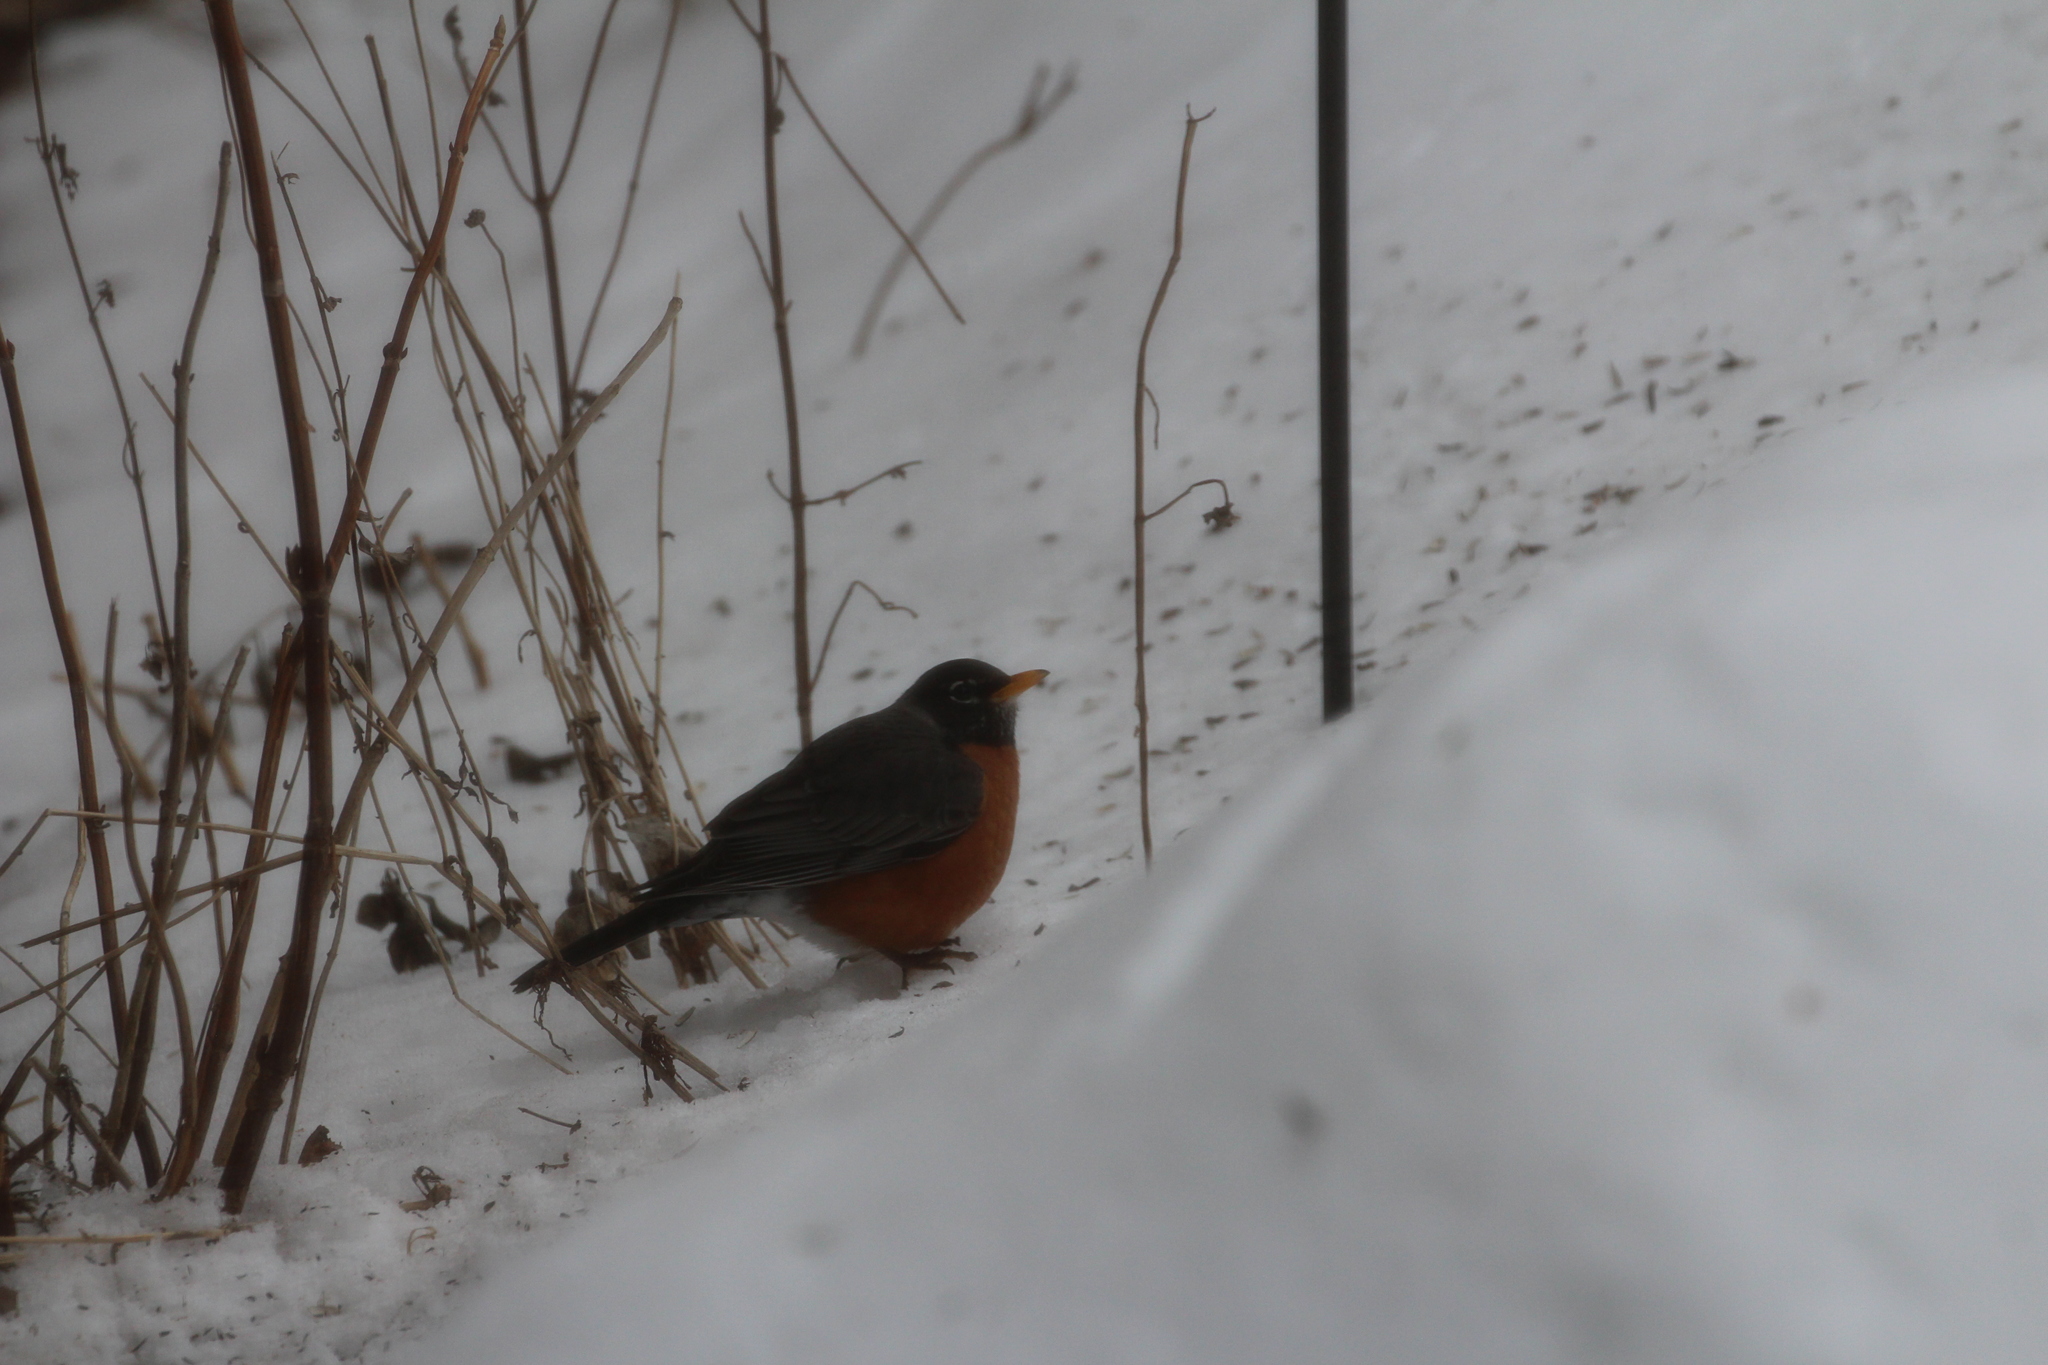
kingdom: Animalia
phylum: Chordata
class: Aves
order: Passeriformes
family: Turdidae
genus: Turdus
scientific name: Turdus migratorius
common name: American robin
